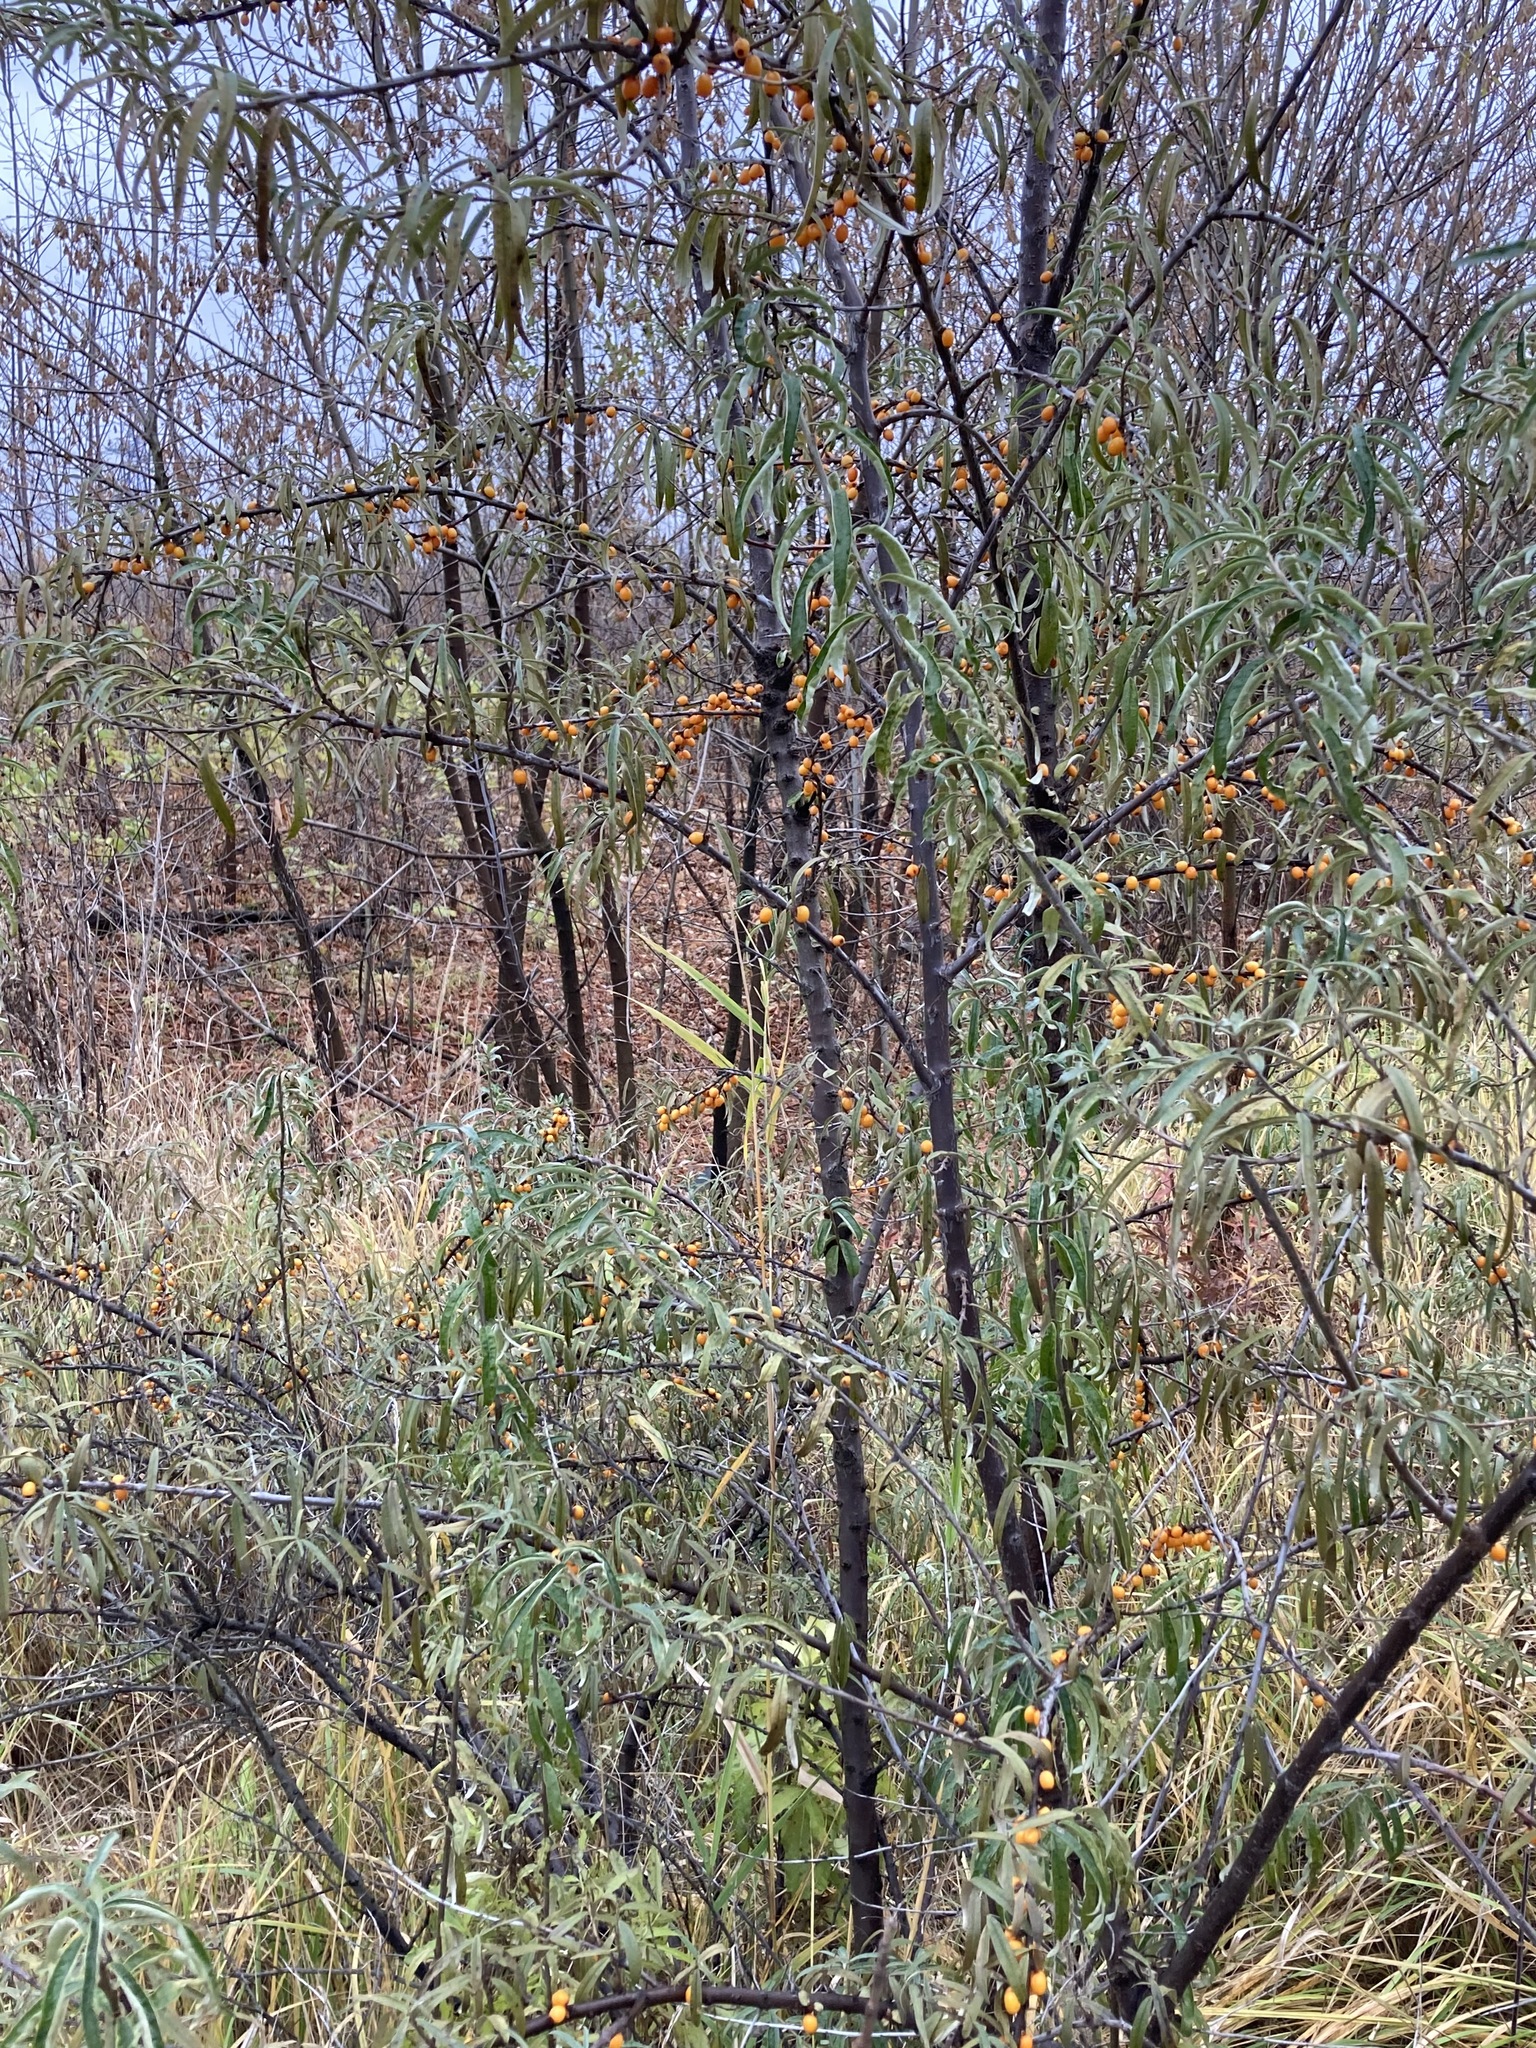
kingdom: Plantae
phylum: Tracheophyta
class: Magnoliopsida
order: Rosales
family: Elaeagnaceae
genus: Hippophae
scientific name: Hippophae rhamnoides
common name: Sea-buckthorn
